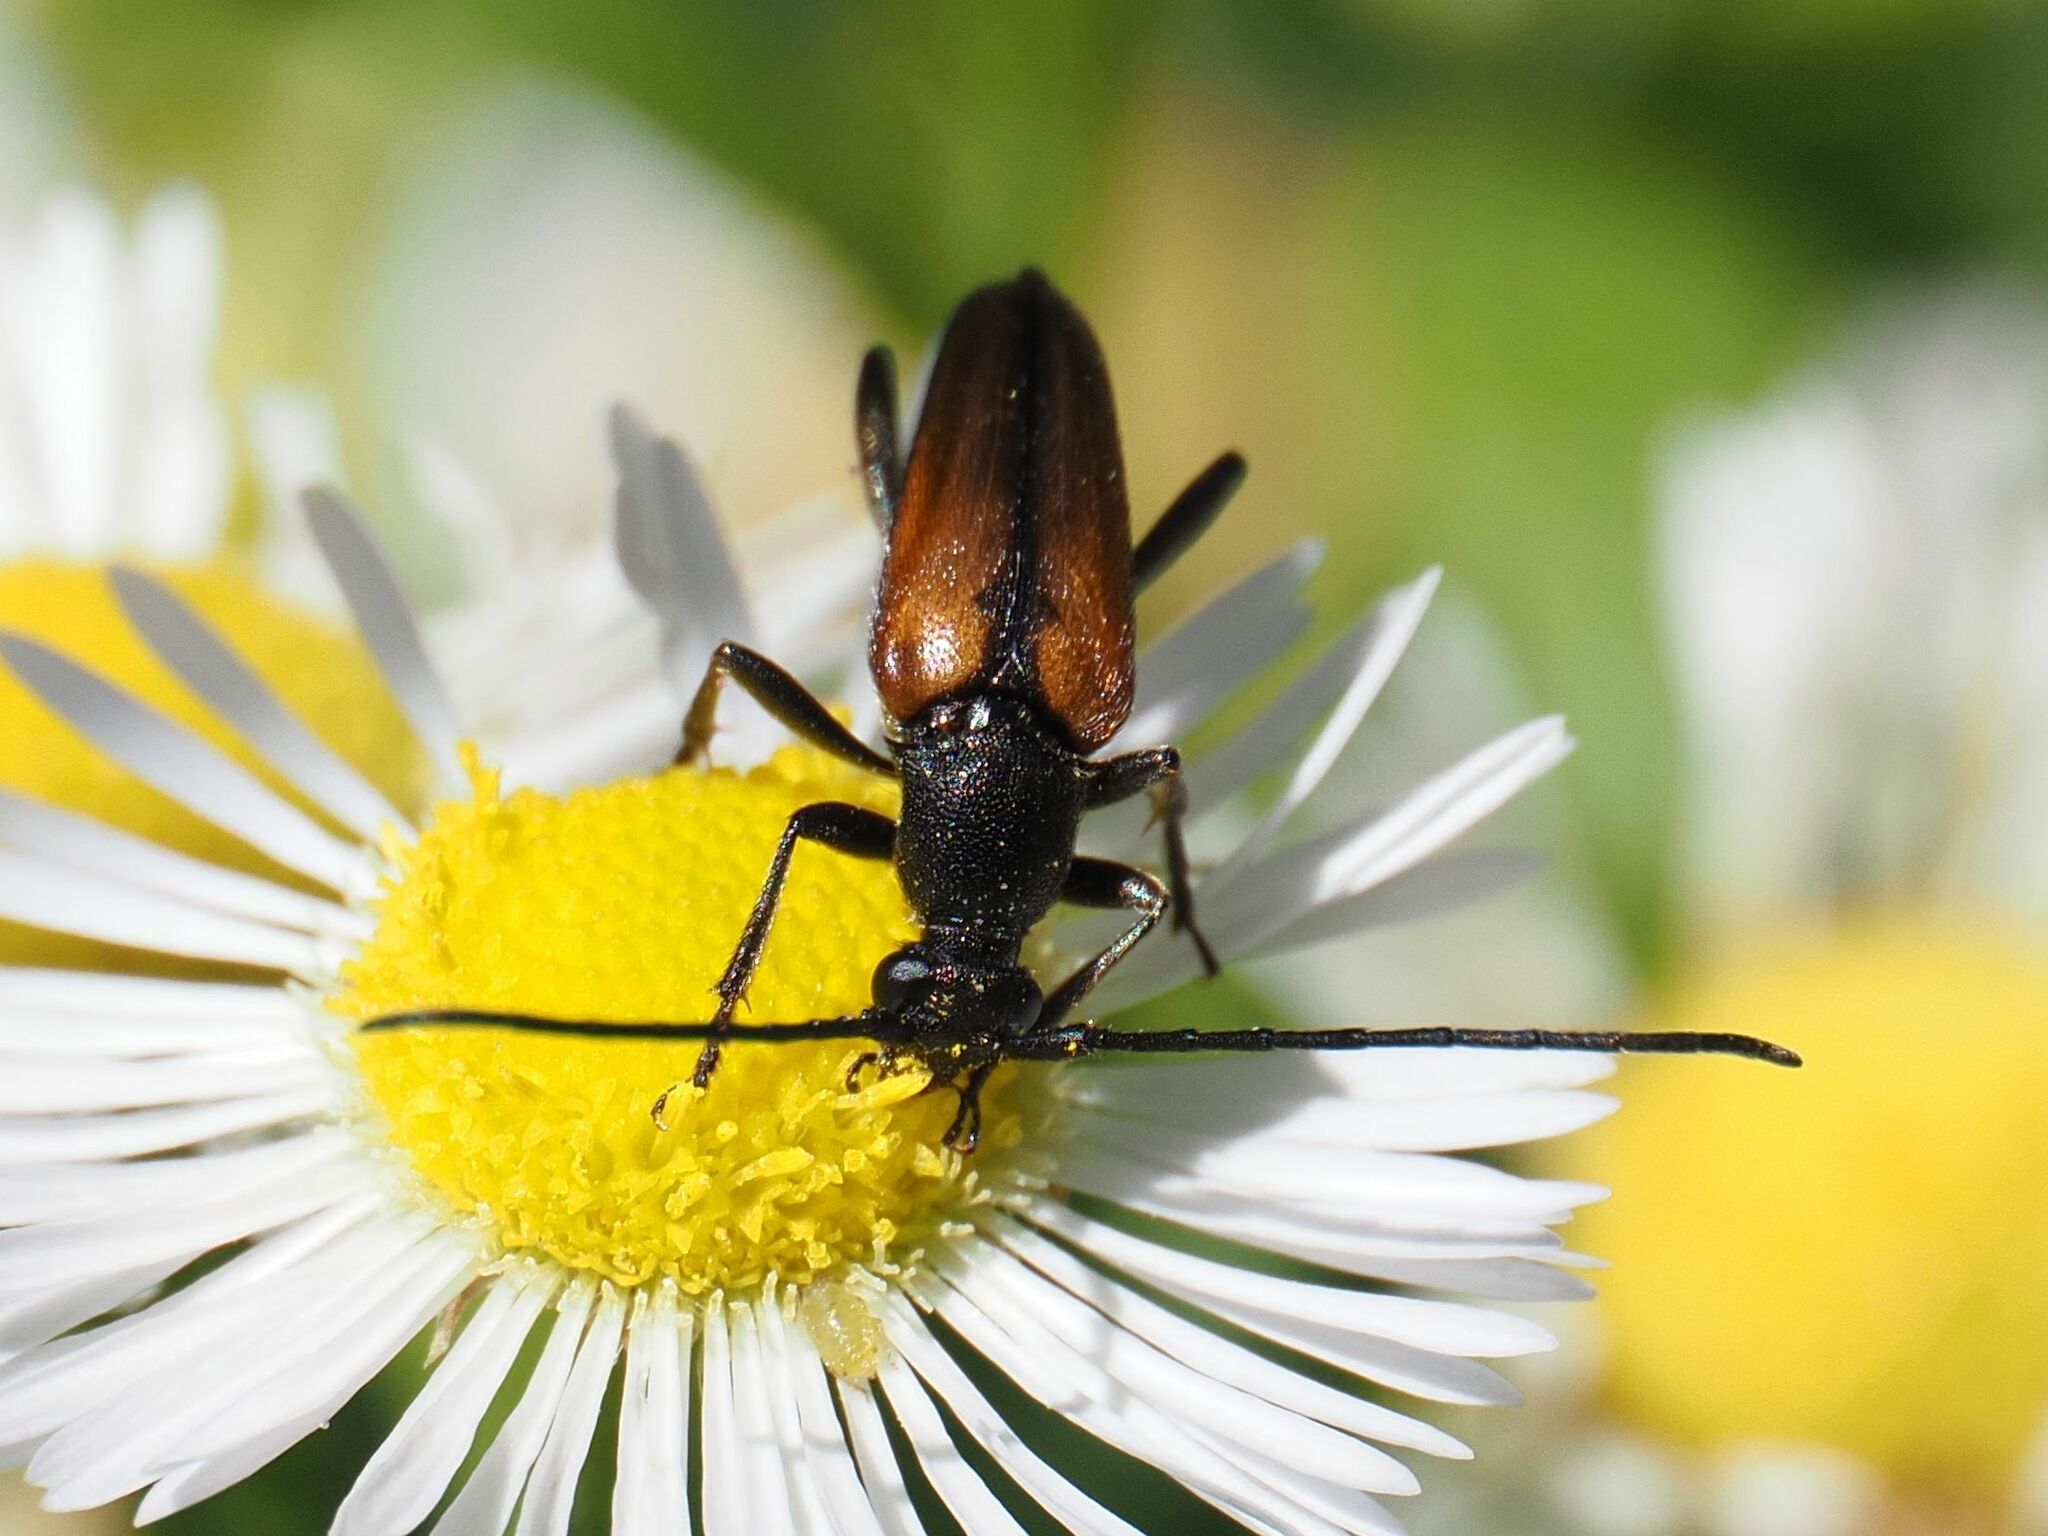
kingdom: Animalia
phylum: Arthropoda
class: Insecta
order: Coleoptera
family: Cerambycidae
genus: Stenurella
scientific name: Stenurella melanura
